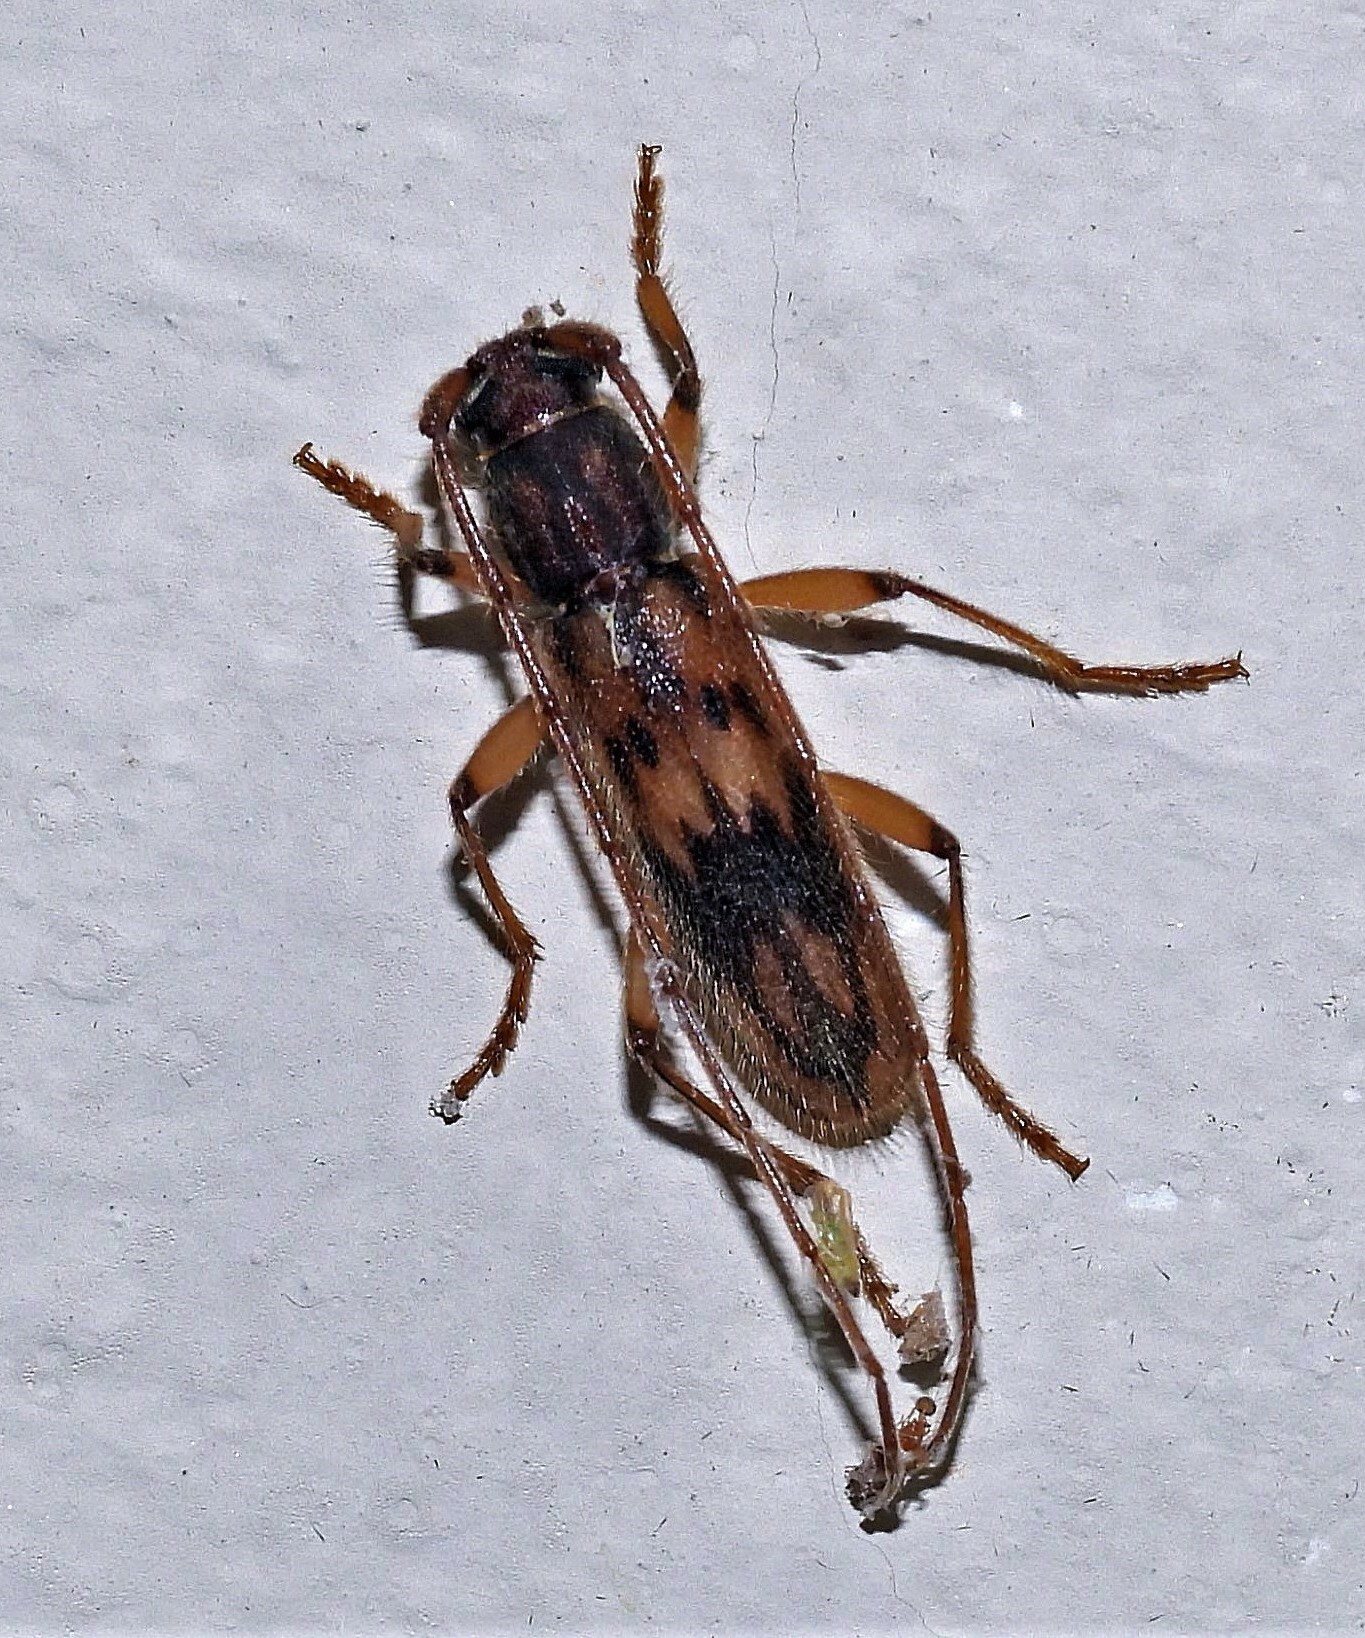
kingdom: Animalia
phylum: Arthropoda
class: Insecta
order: Coleoptera
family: Cerambycidae
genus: Achryson
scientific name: Achryson lutarium
